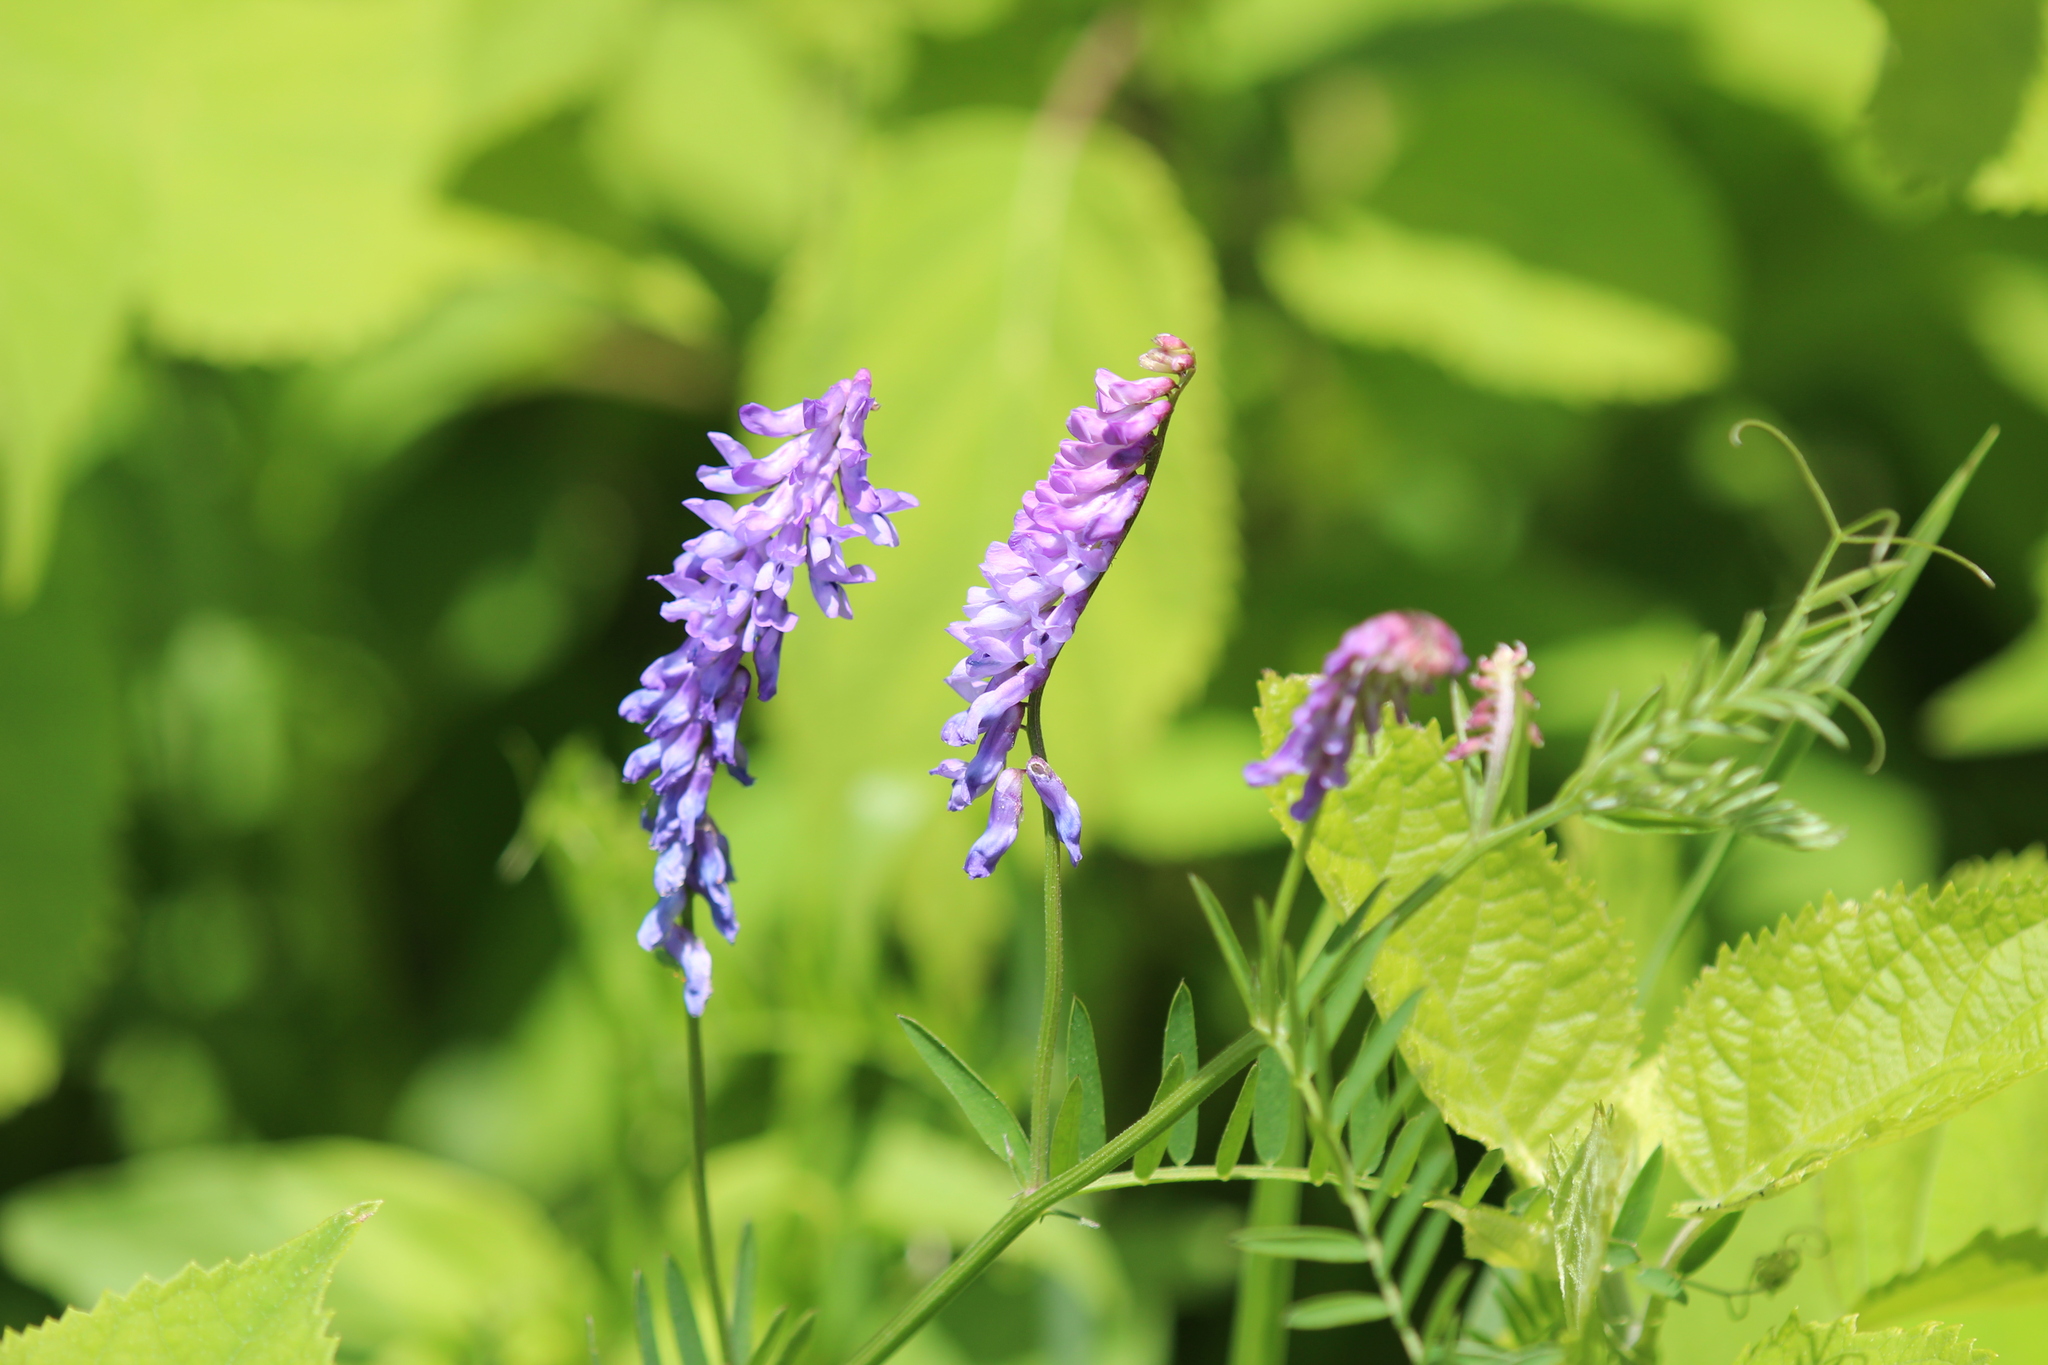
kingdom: Plantae
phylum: Tracheophyta
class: Magnoliopsida
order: Fabales
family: Fabaceae
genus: Vicia
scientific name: Vicia cracca
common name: Bird vetch
